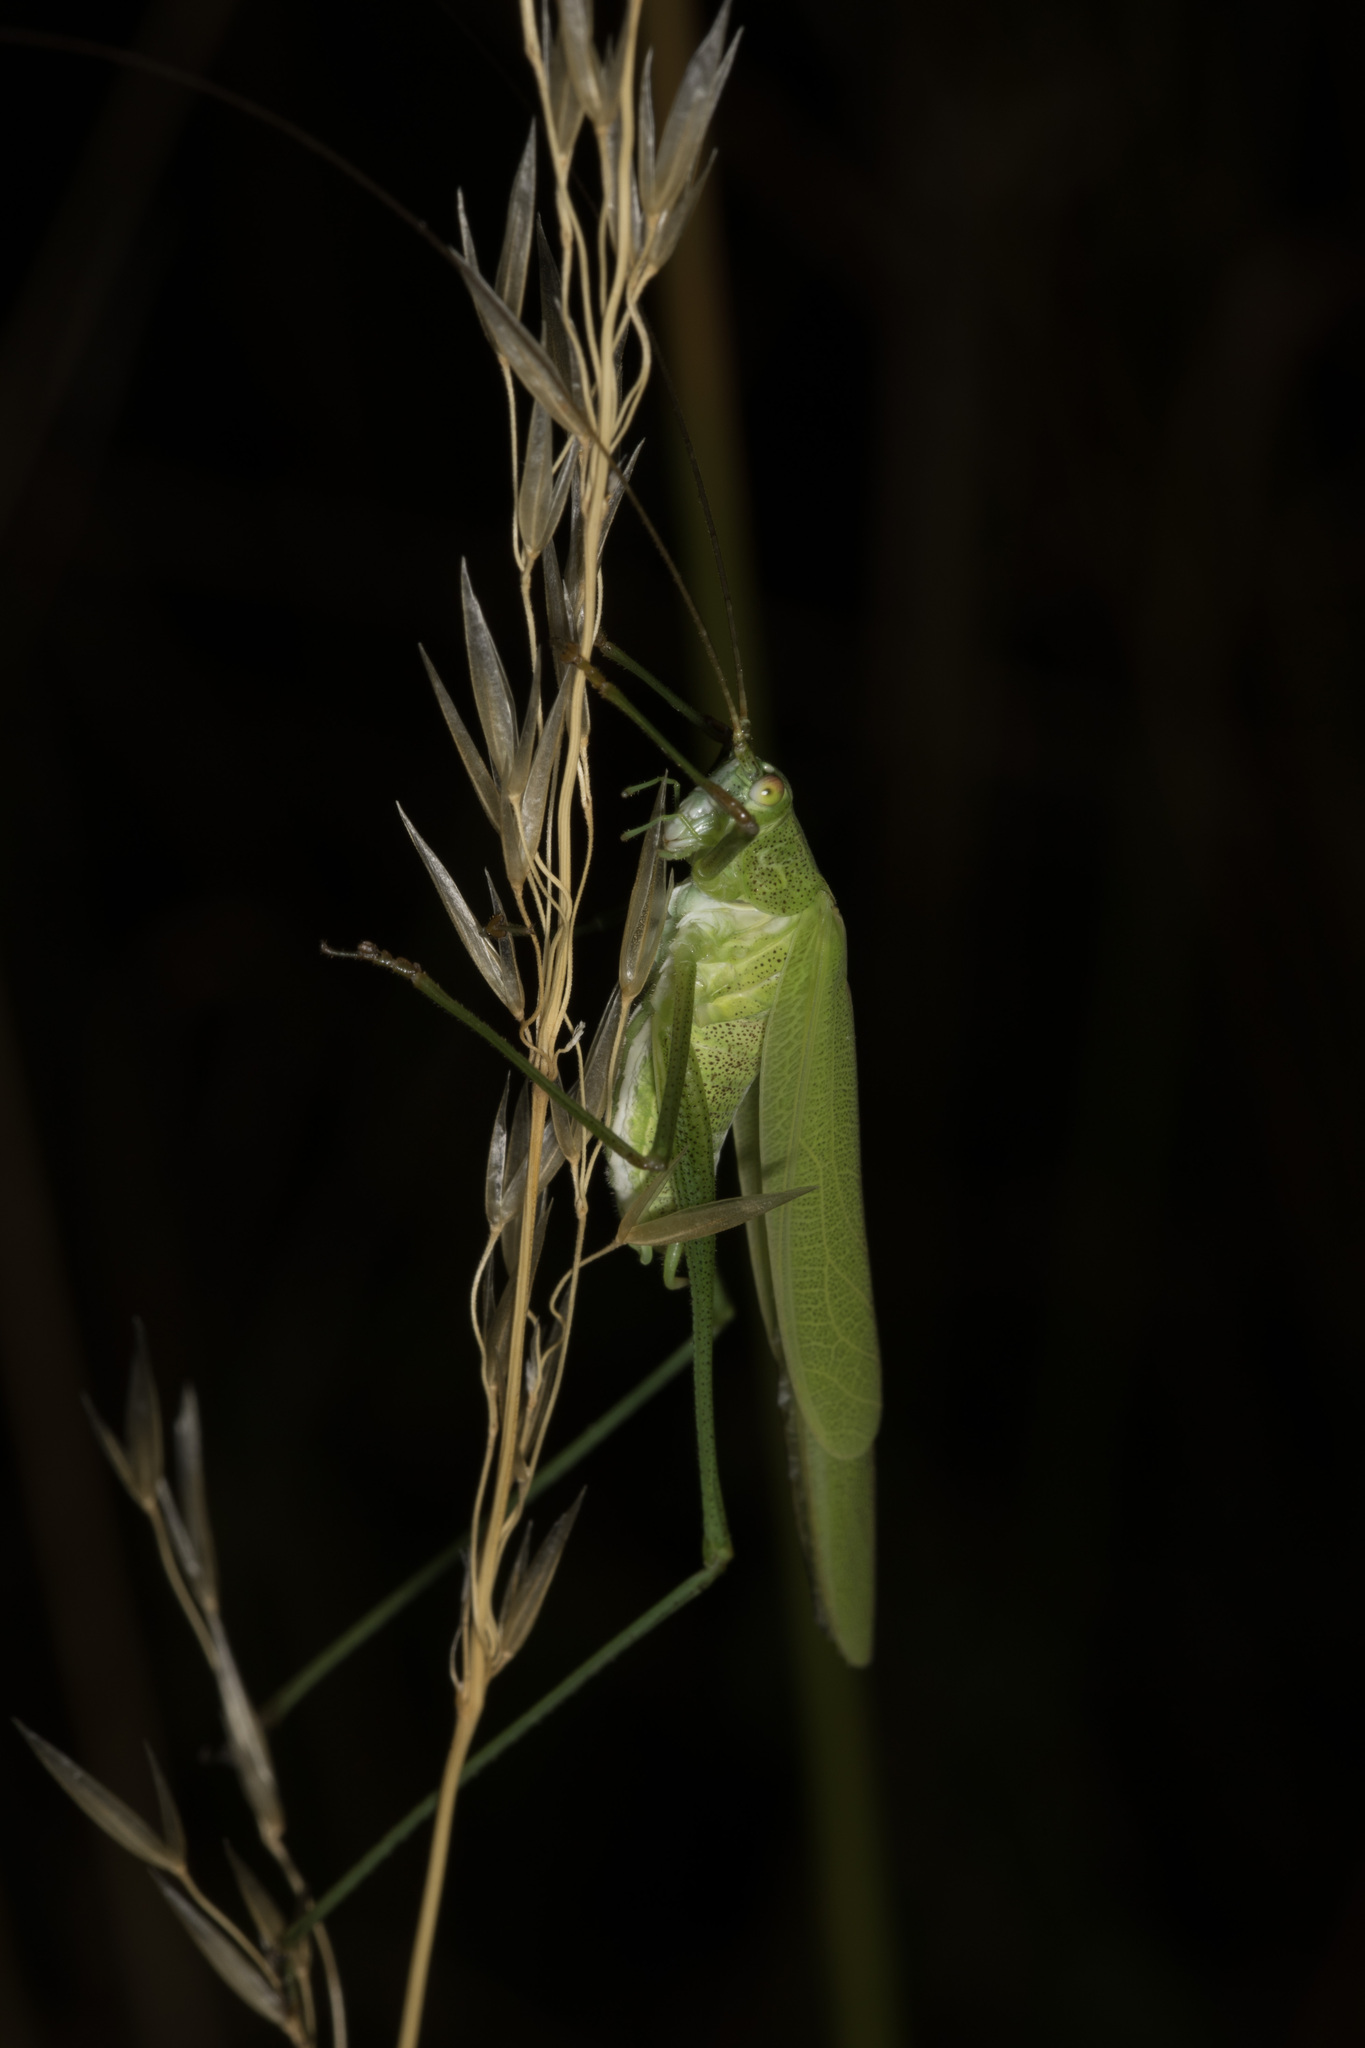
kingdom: Animalia
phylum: Arthropoda
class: Insecta
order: Orthoptera
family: Tettigoniidae
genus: Phaneroptera
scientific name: Phaneroptera falcata
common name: Sickle-bearing bush-cricket
